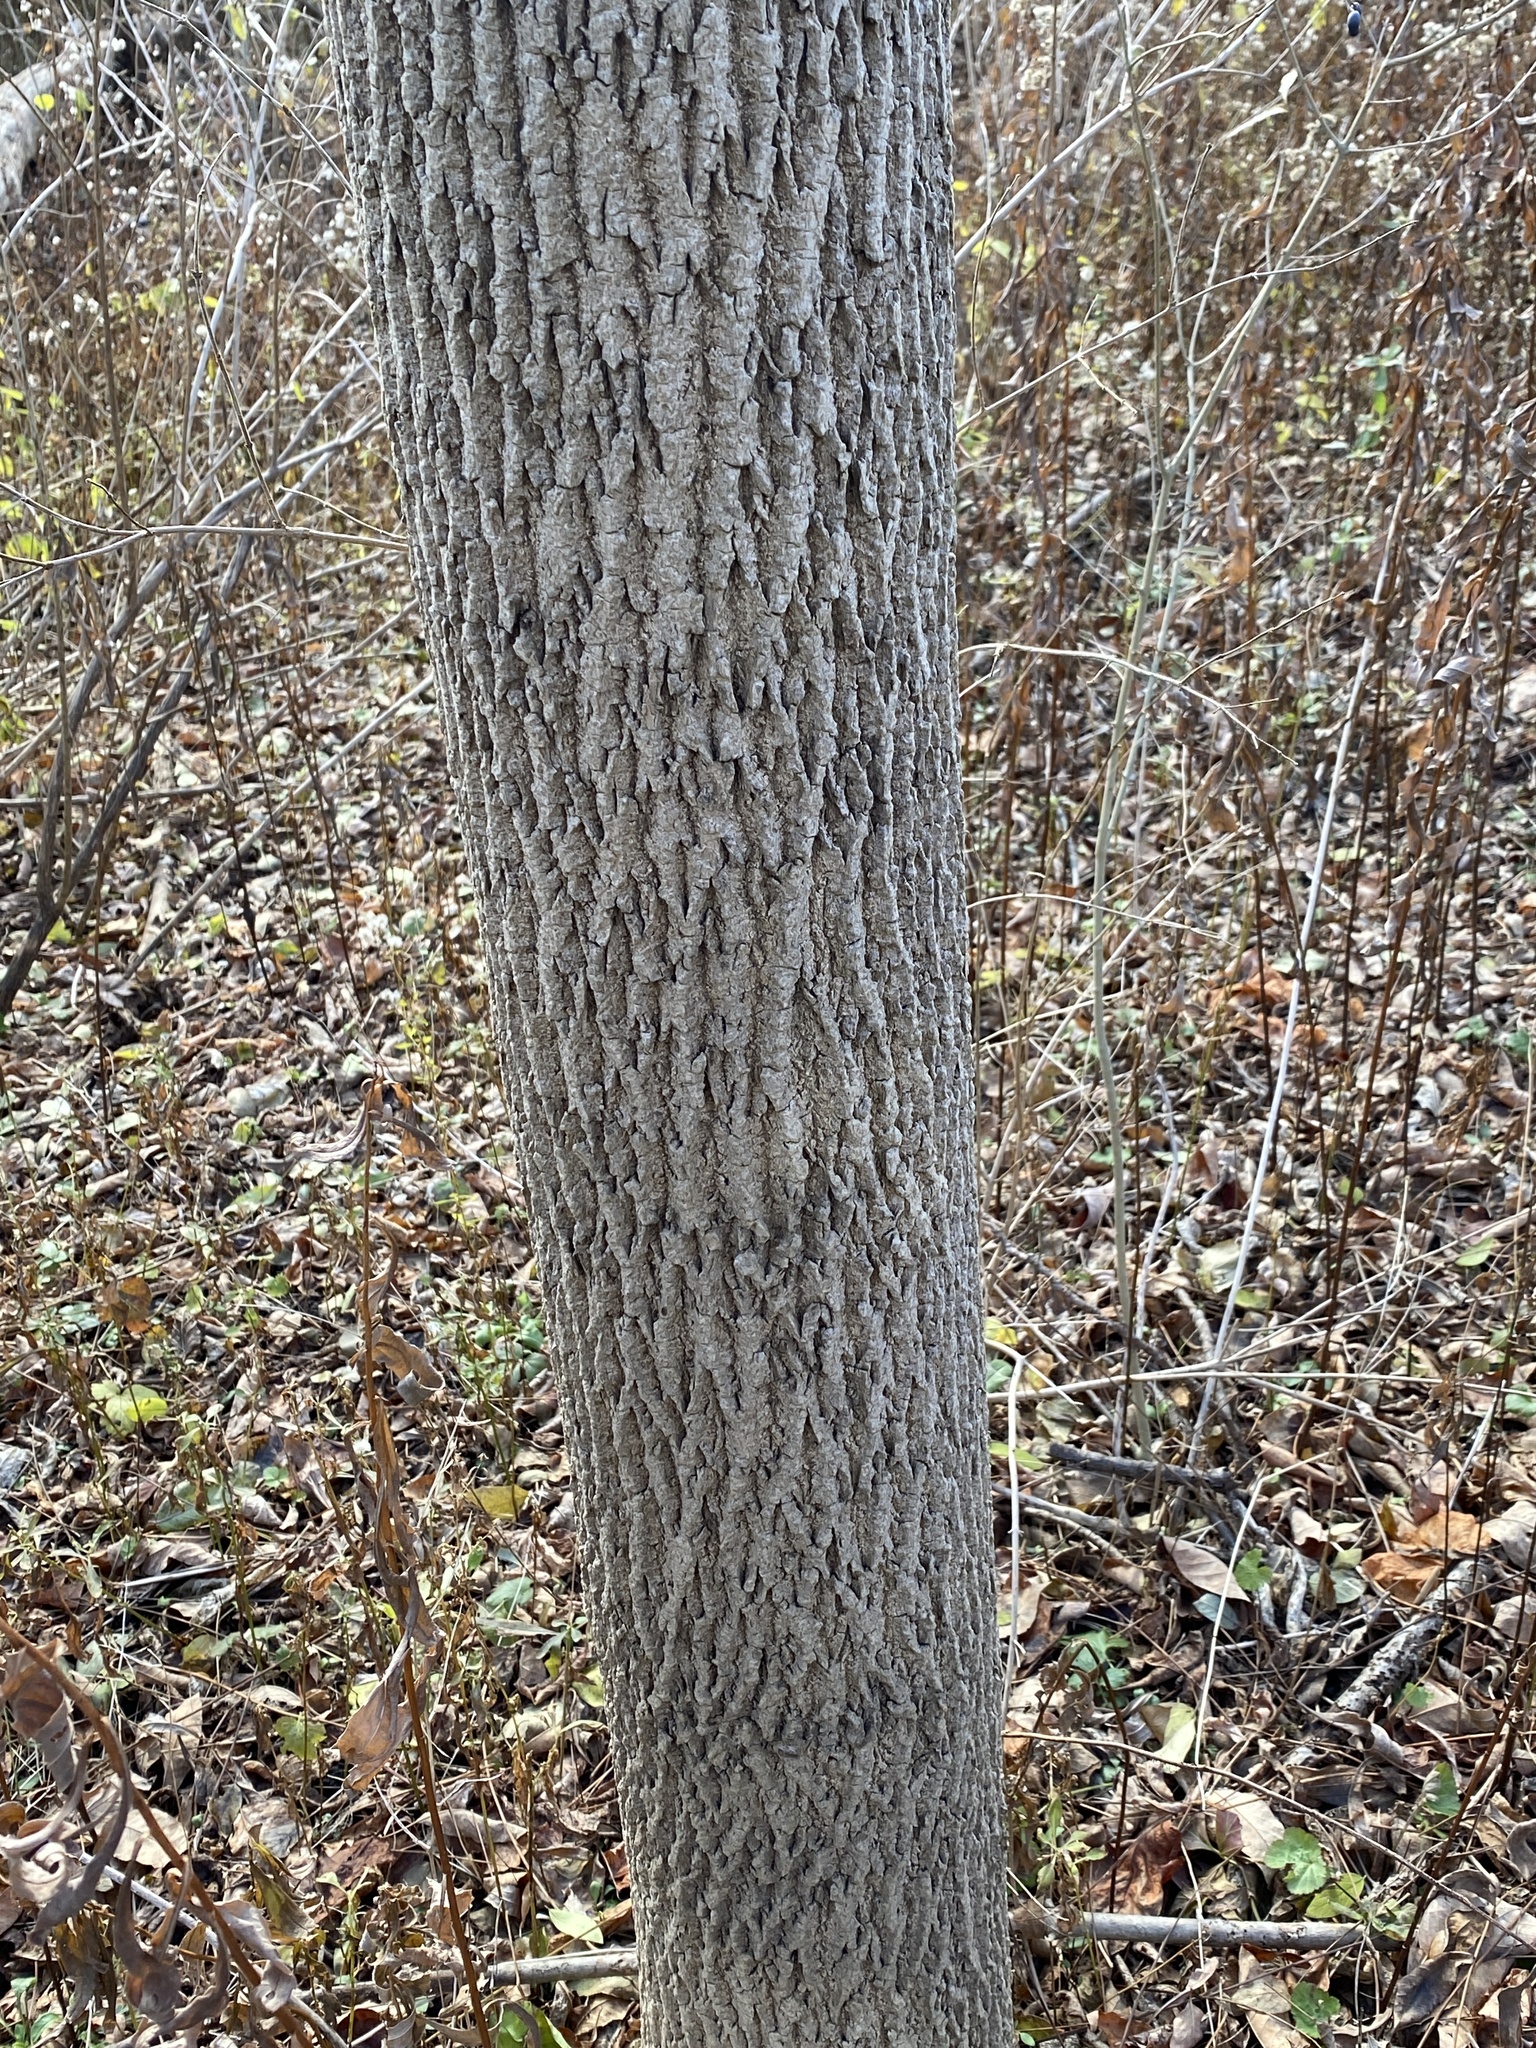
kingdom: Plantae
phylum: Tracheophyta
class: Magnoliopsida
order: Magnoliales
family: Magnoliaceae
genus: Liriodendron
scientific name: Liriodendron tulipifera
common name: Tulip tree
